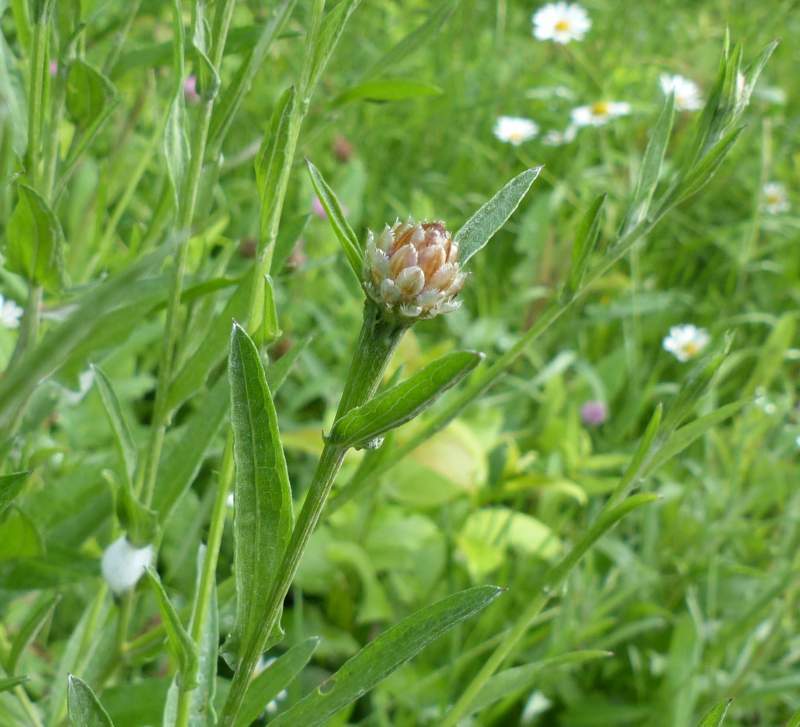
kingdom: Plantae
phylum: Tracheophyta
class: Magnoliopsida
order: Asterales
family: Asteraceae
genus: Centaurea
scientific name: Centaurea jacea
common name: Brown knapweed
